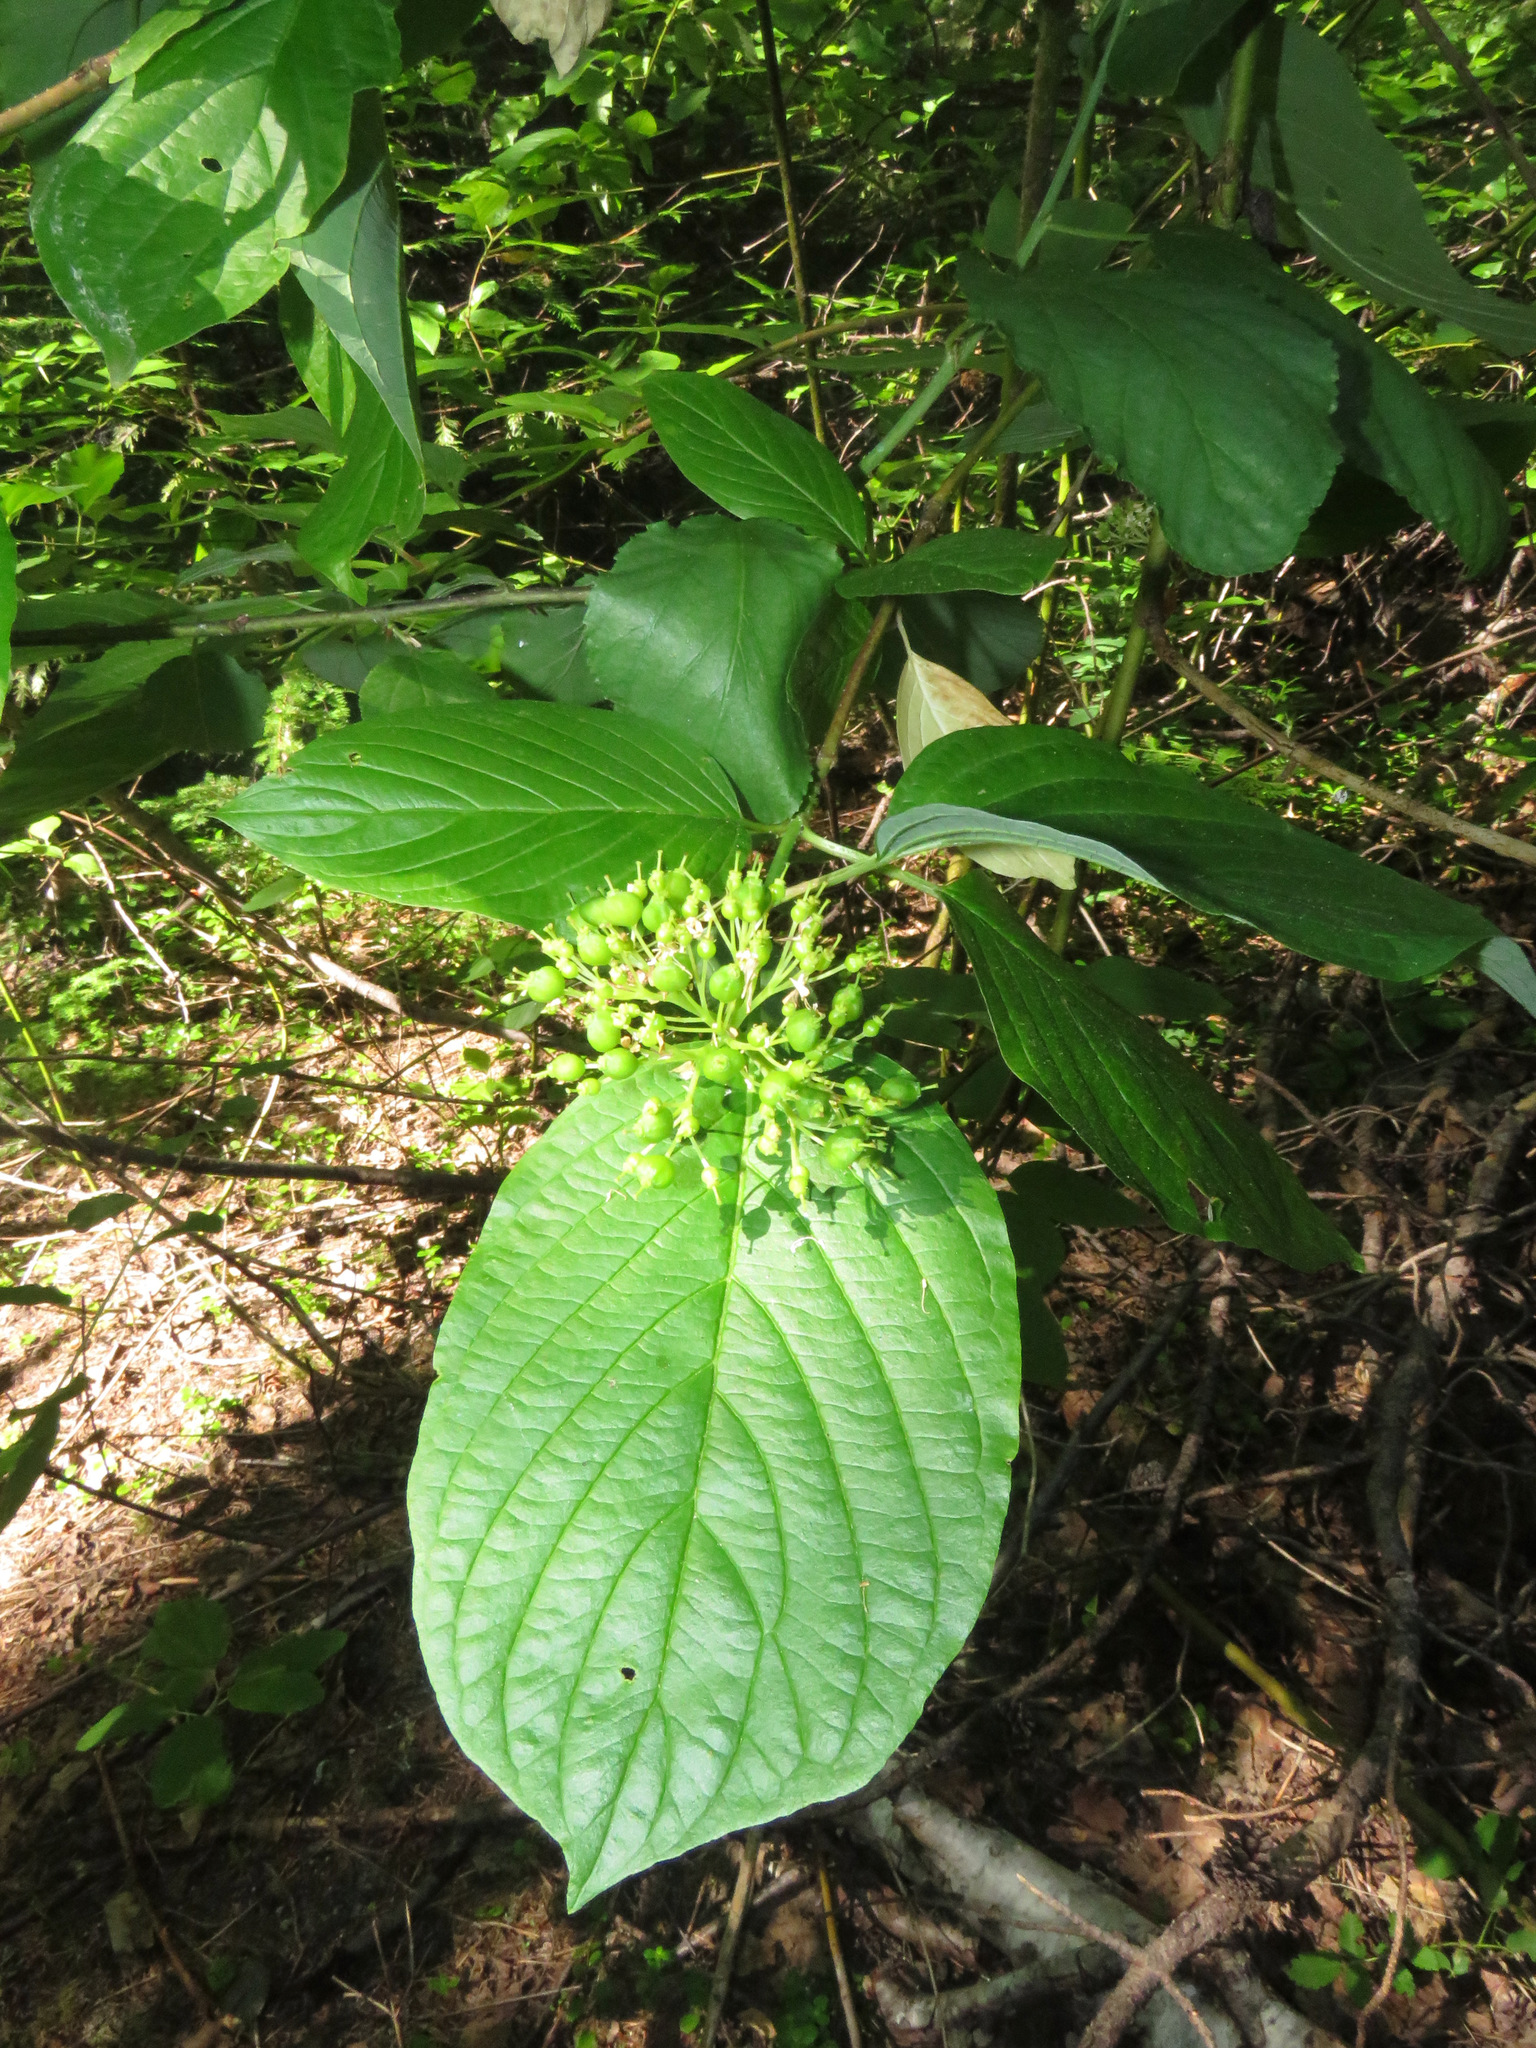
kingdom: Plantae
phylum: Tracheophyta
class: Magnoliopsida
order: Cornales
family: Cornaceae
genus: Cornus
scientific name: Cornus sericea
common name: Red-osier dogwood
